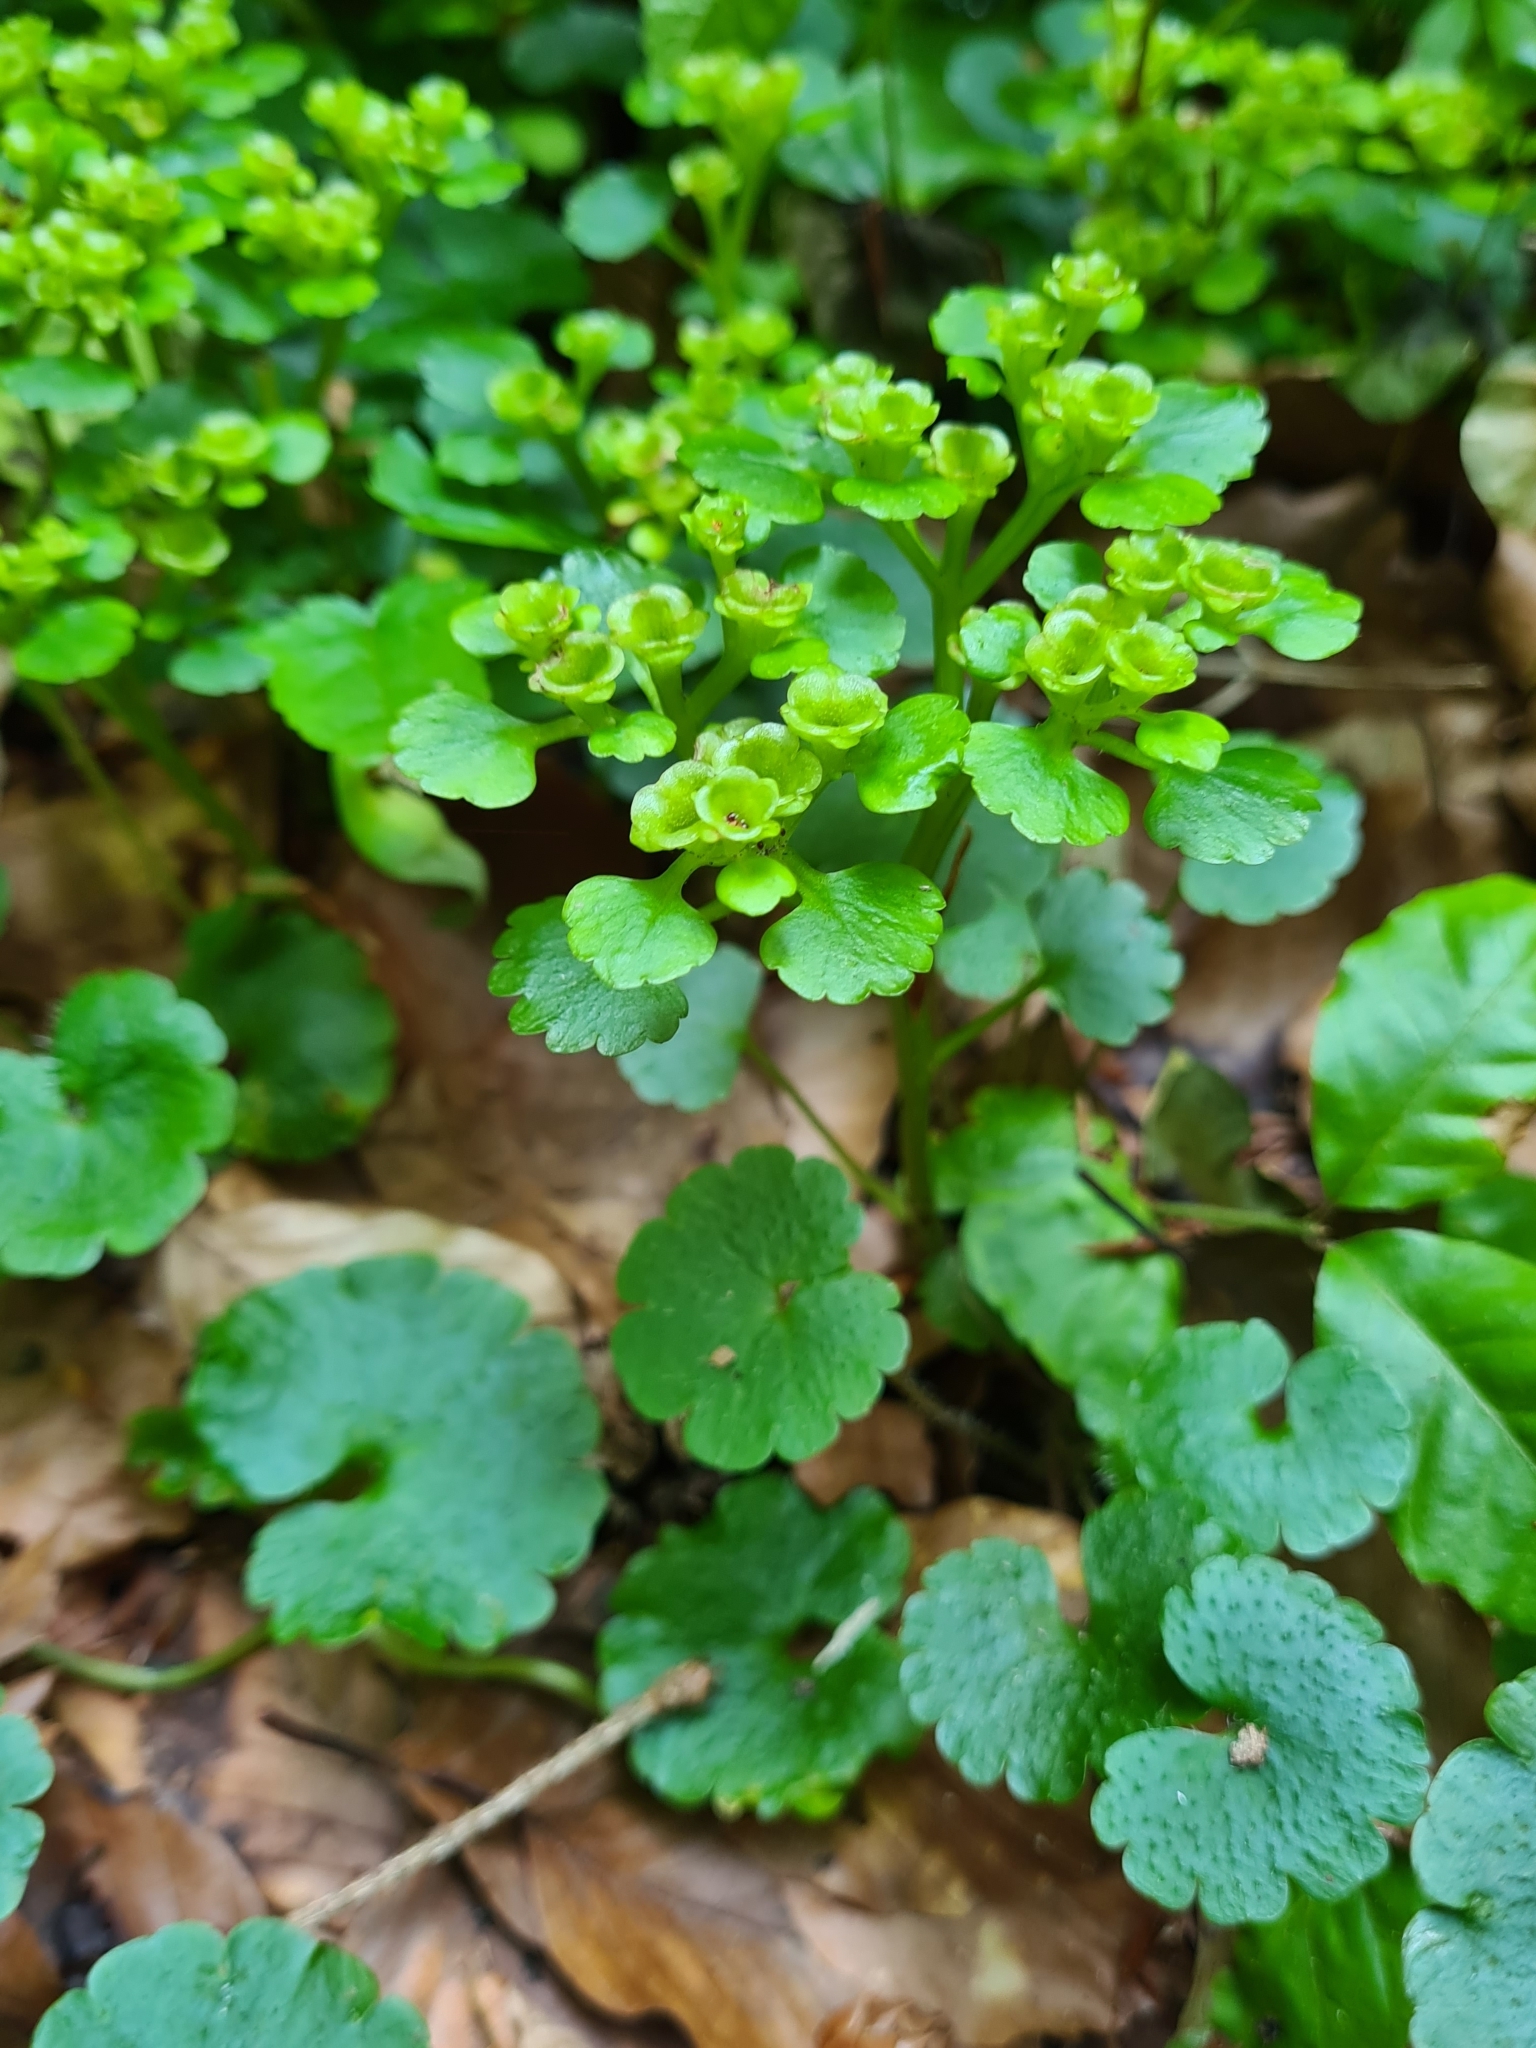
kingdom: Plantae
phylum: Tracheophyta
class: Magnoliopsida
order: Saxifragales
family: Saxifragaceae
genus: Chrysosplenium
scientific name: Chrysosplenium alternifolium
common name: Alternate-leaved golden-saxifrage
